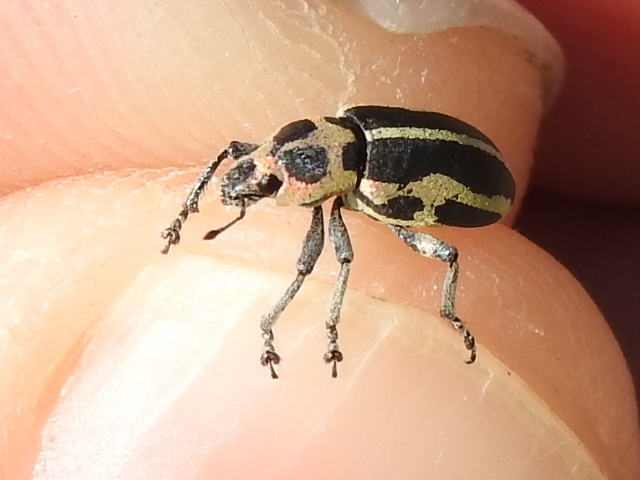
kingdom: Animalia
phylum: Arthropoda
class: Insecta
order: Coleoptera
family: Curculionidae
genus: Eudiagogus
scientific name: Eudiagogus pulcher
